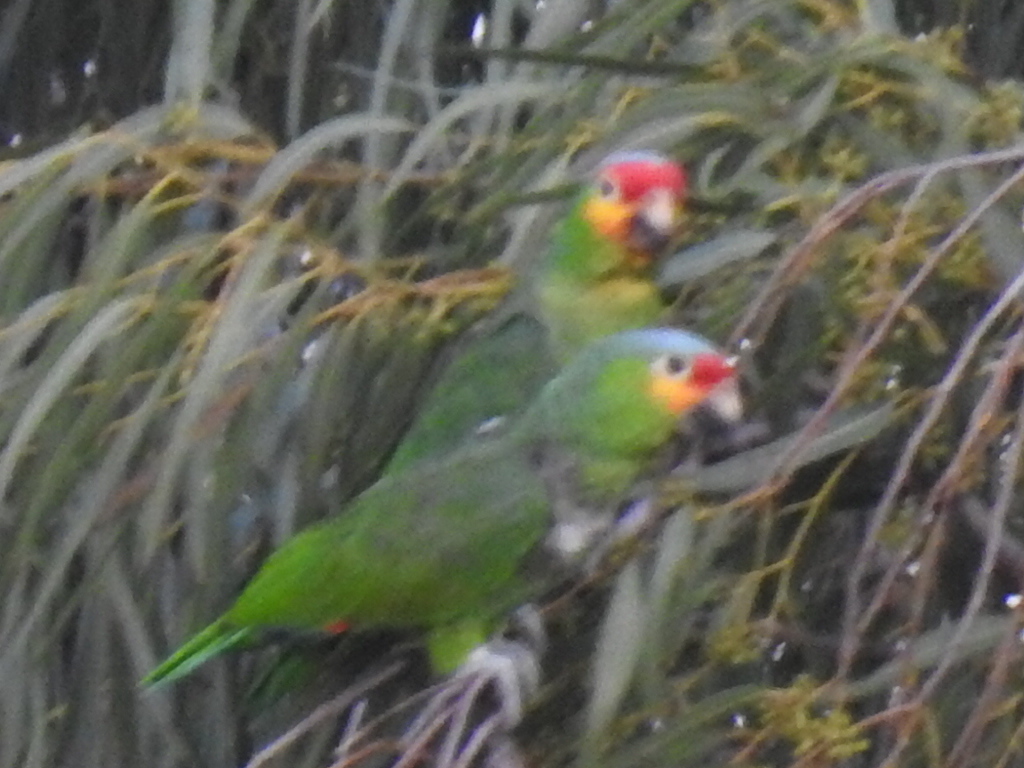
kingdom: Animalia
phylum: Chordata
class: Aves
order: Psittaciformes
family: Psittacidae
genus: Amazona
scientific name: Amazona autumnalis
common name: Red-lored amazon
